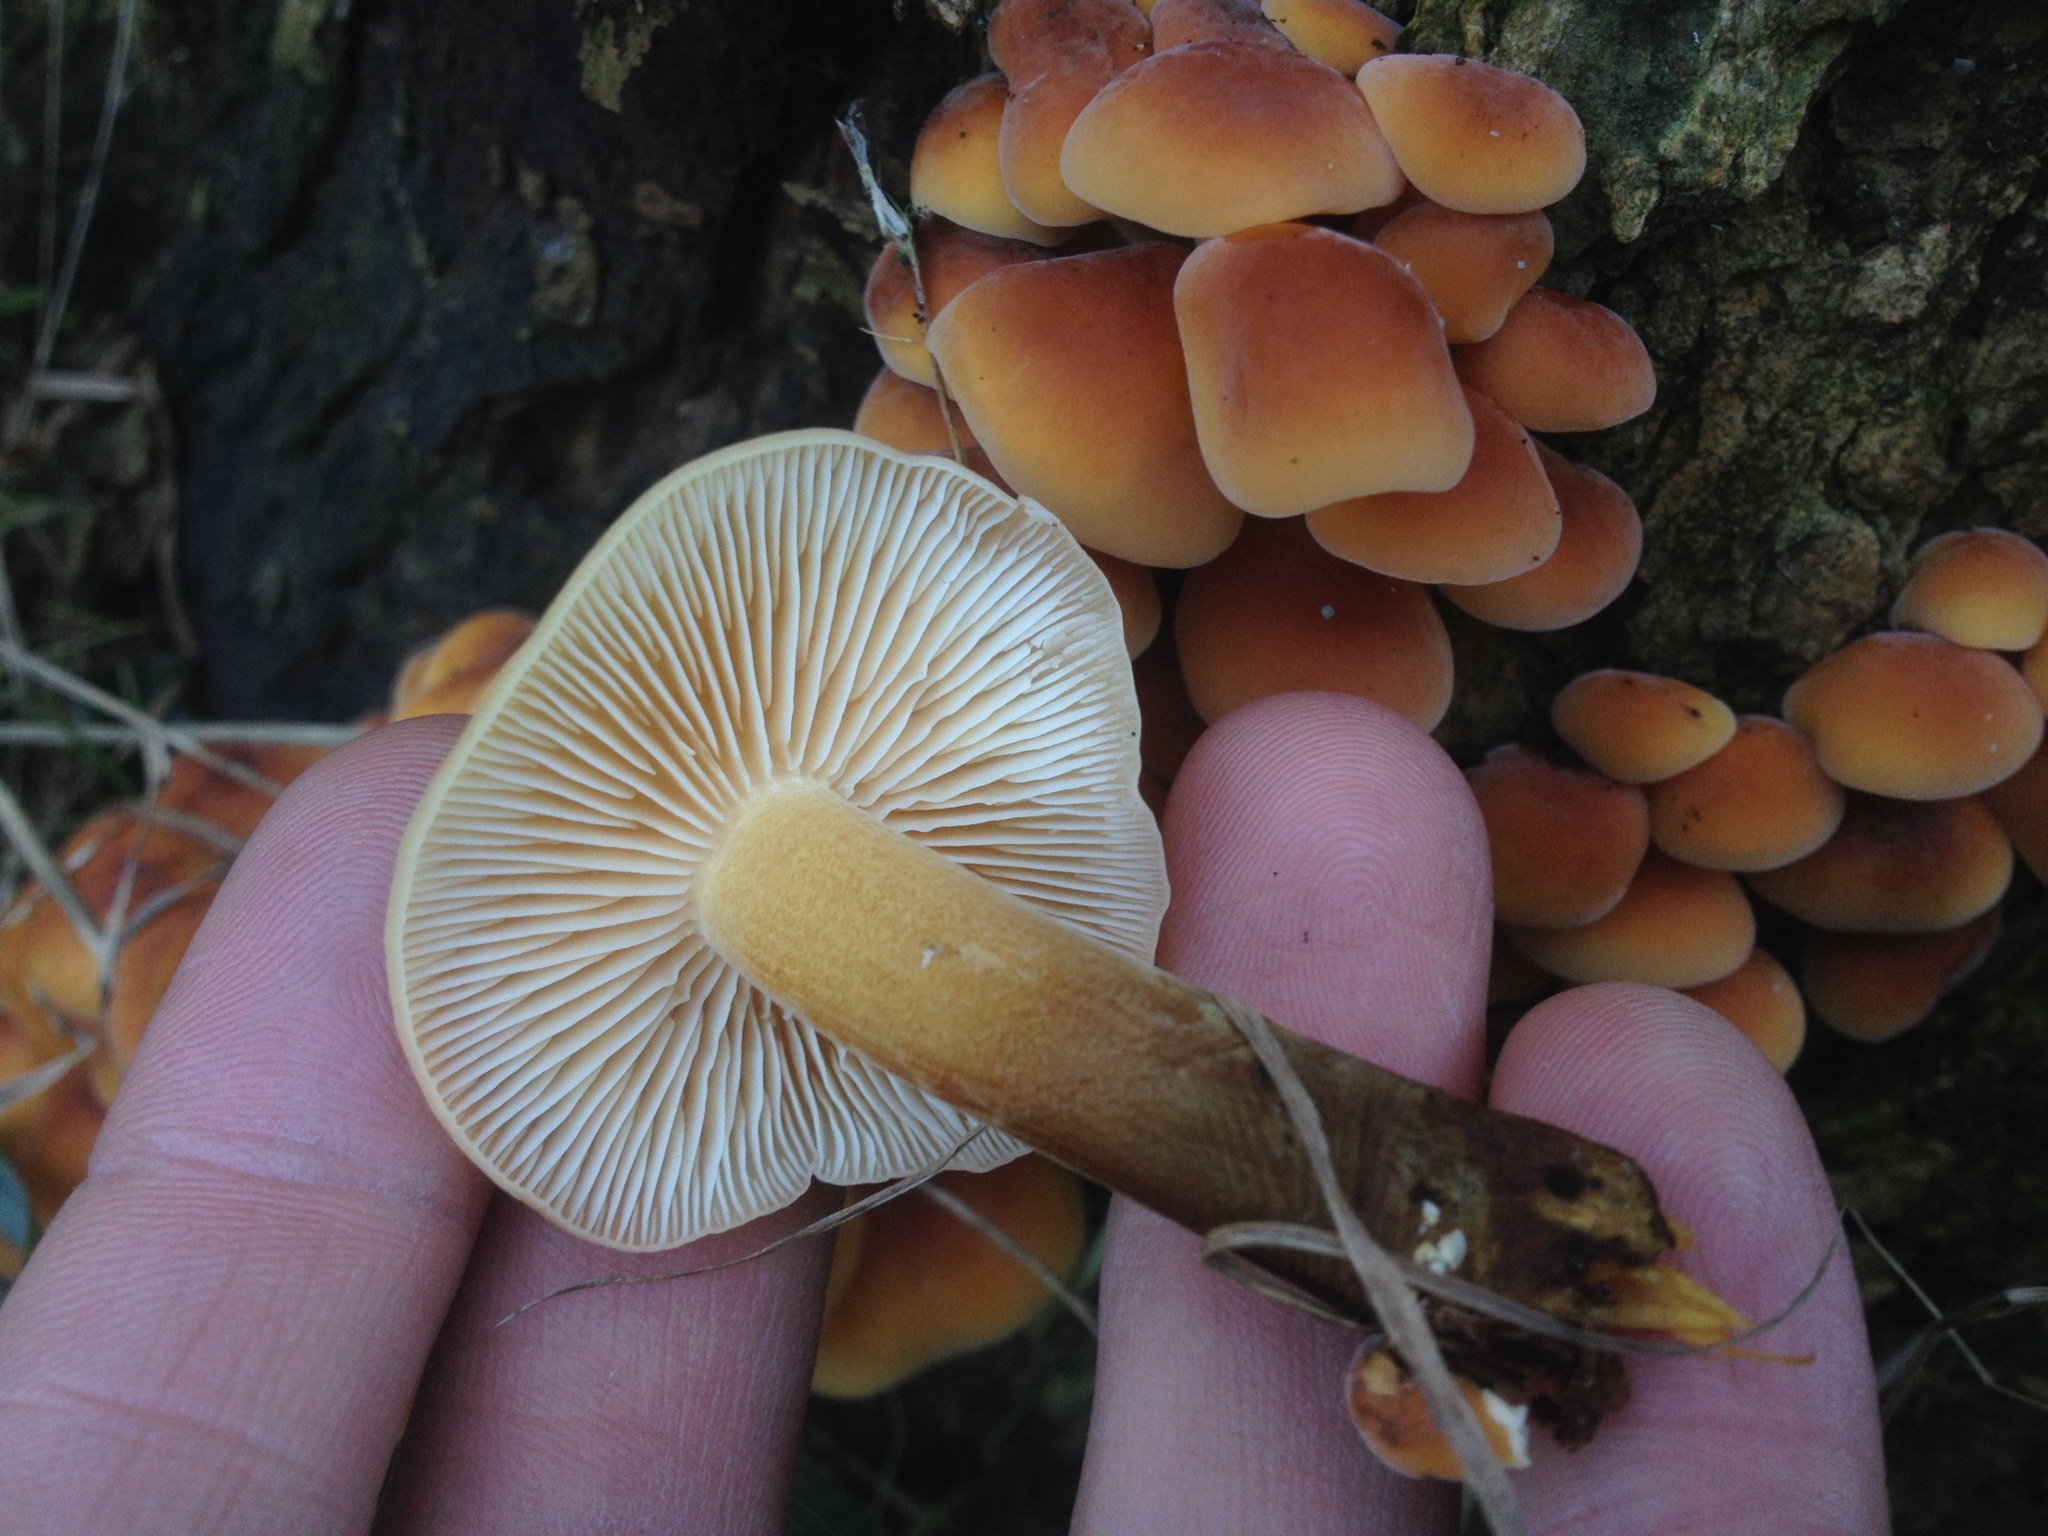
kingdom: Fungi
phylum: Basidiomycota
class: Agaricomycetes
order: Agaricales
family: Physalacriaceae
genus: Flammulina
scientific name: Flammulina velutipes
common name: Velvet shank
